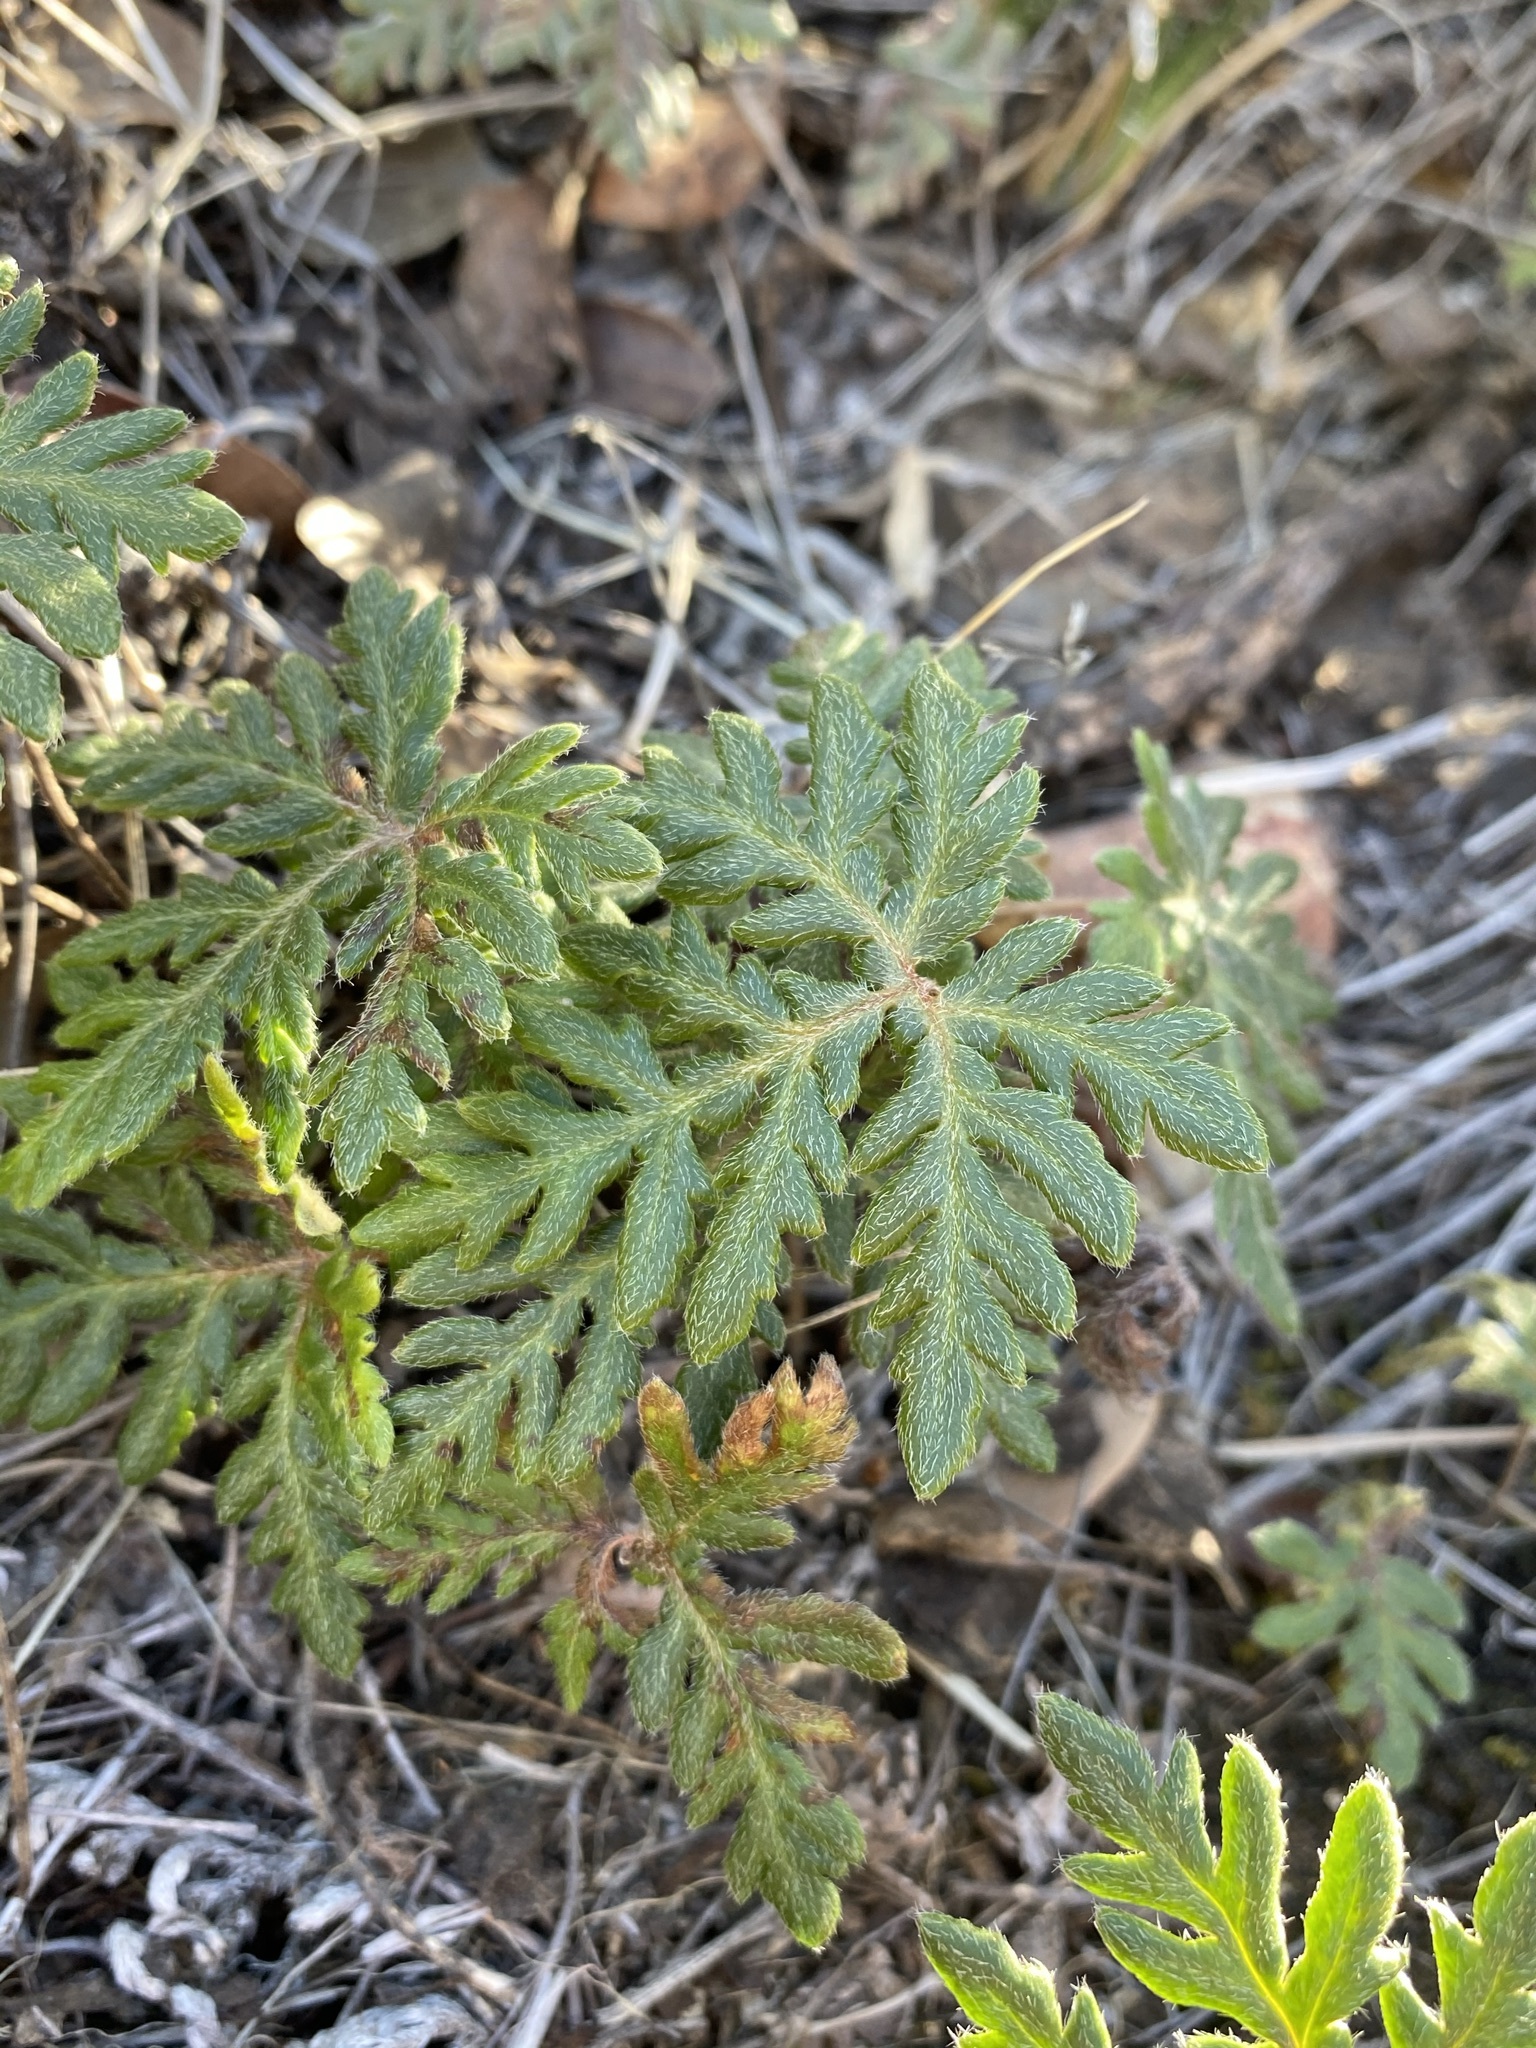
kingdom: Plantae
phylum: Tracheophyta
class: Polypodiopsida
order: Polypodiales
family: Pteridaceae
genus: Bommeria
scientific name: Bommeria hispida
